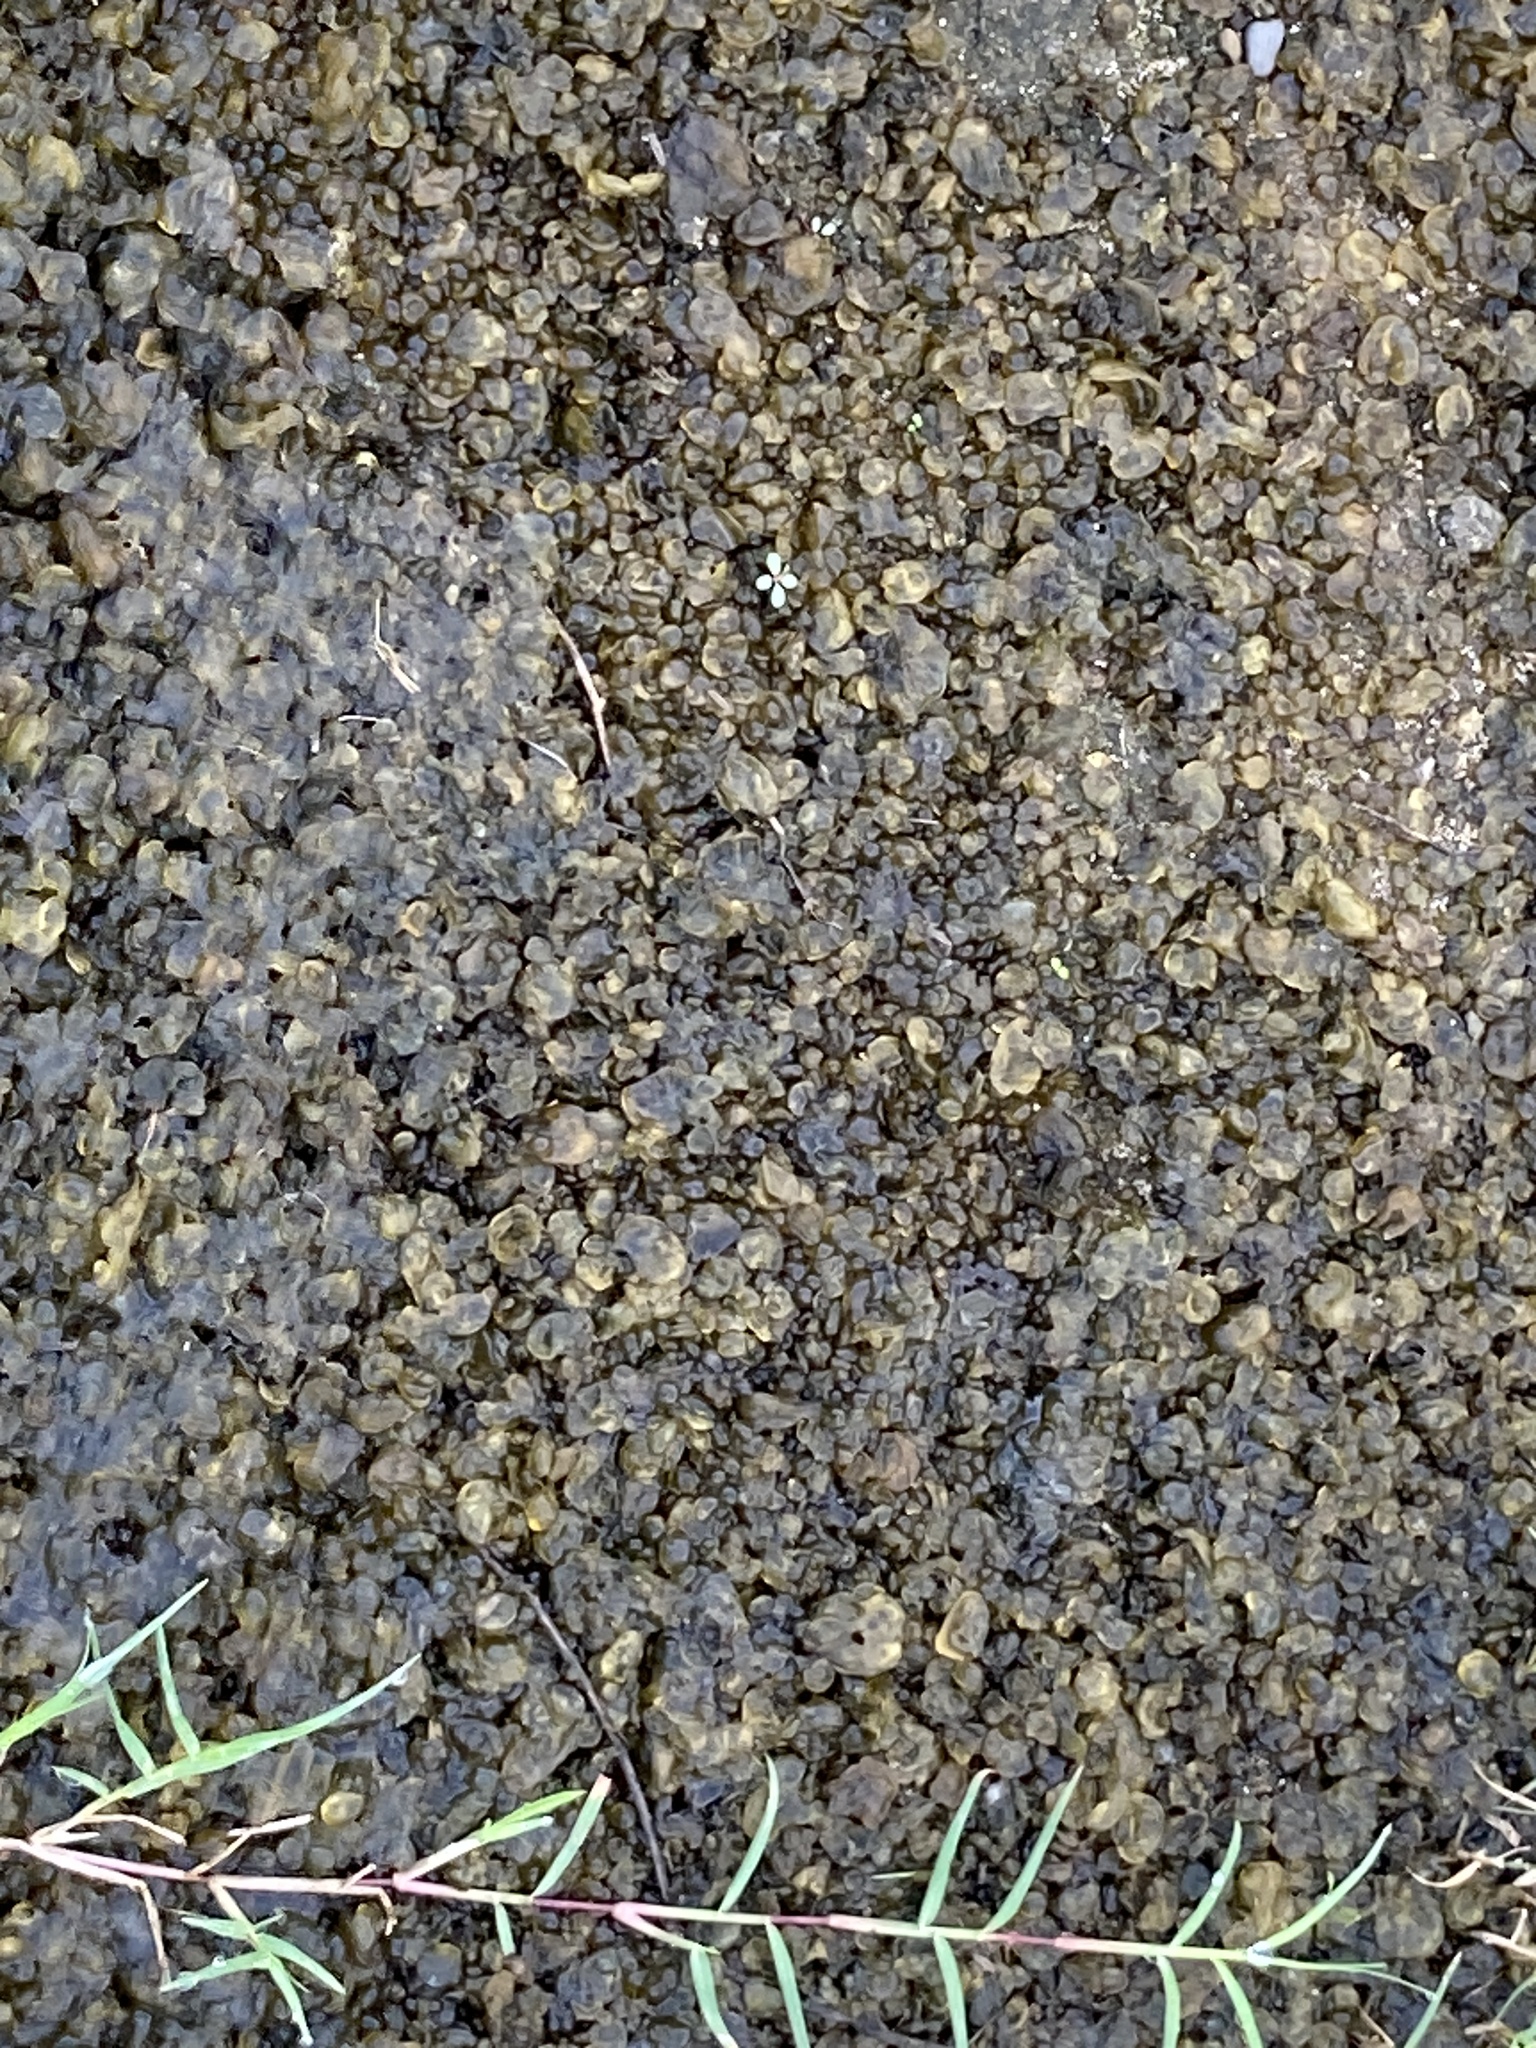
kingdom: Bacteria
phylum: Cyanobacteria
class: Cyanobacteriia
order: Cyanobacteriales
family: Nostocaceae
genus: Nostoc
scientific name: Nostoc commune
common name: Star jelly
